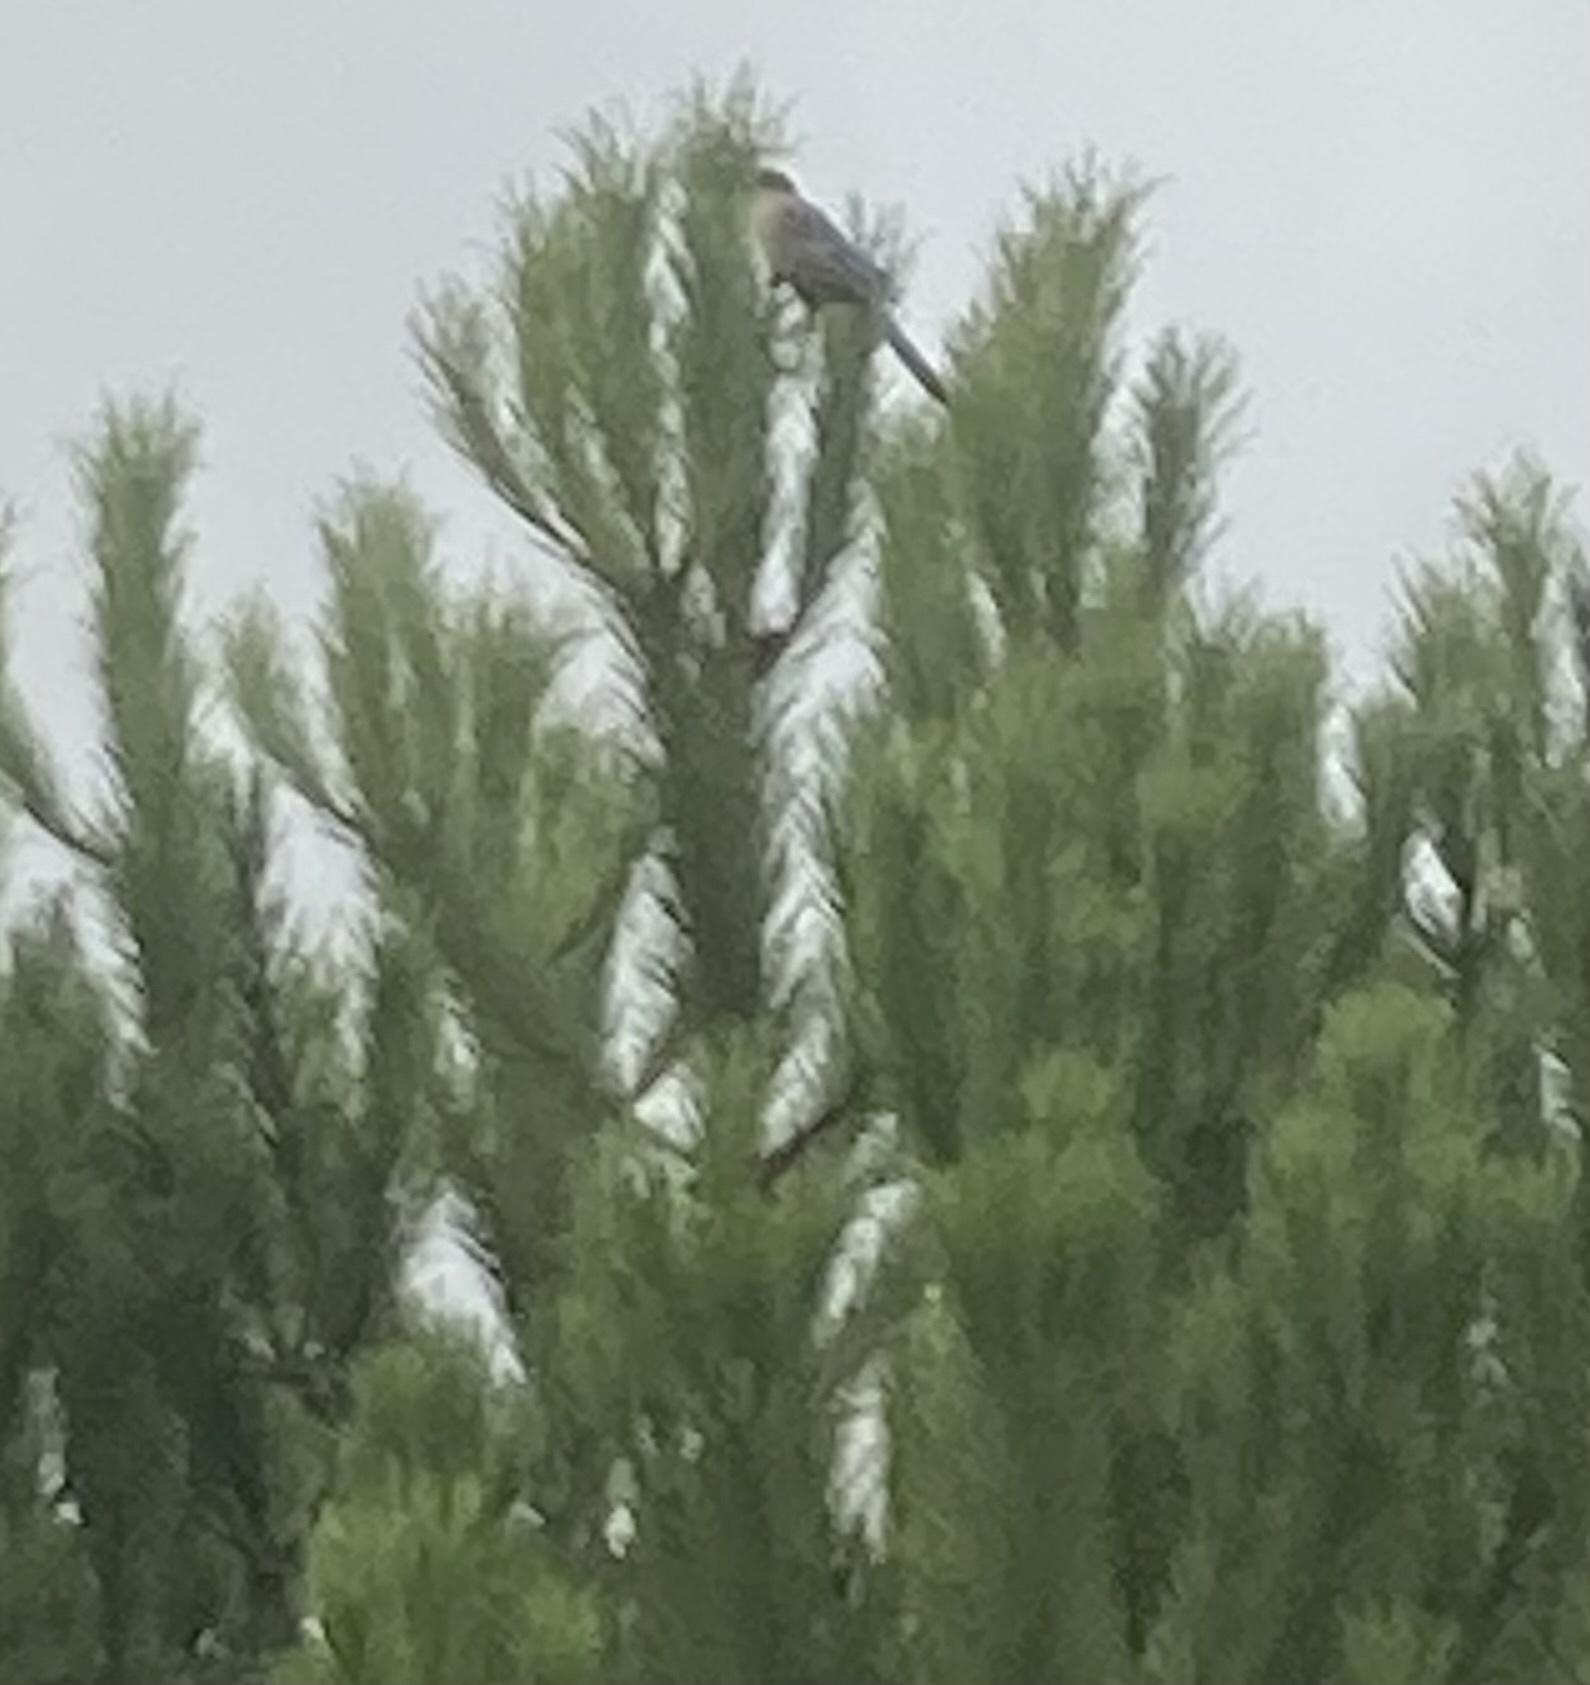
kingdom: Animalia
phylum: Chordata
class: Aves
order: Passeriformes
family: Corvidae
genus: Cyanopica
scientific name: Cyanopica cooki
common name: Iberian magpie
